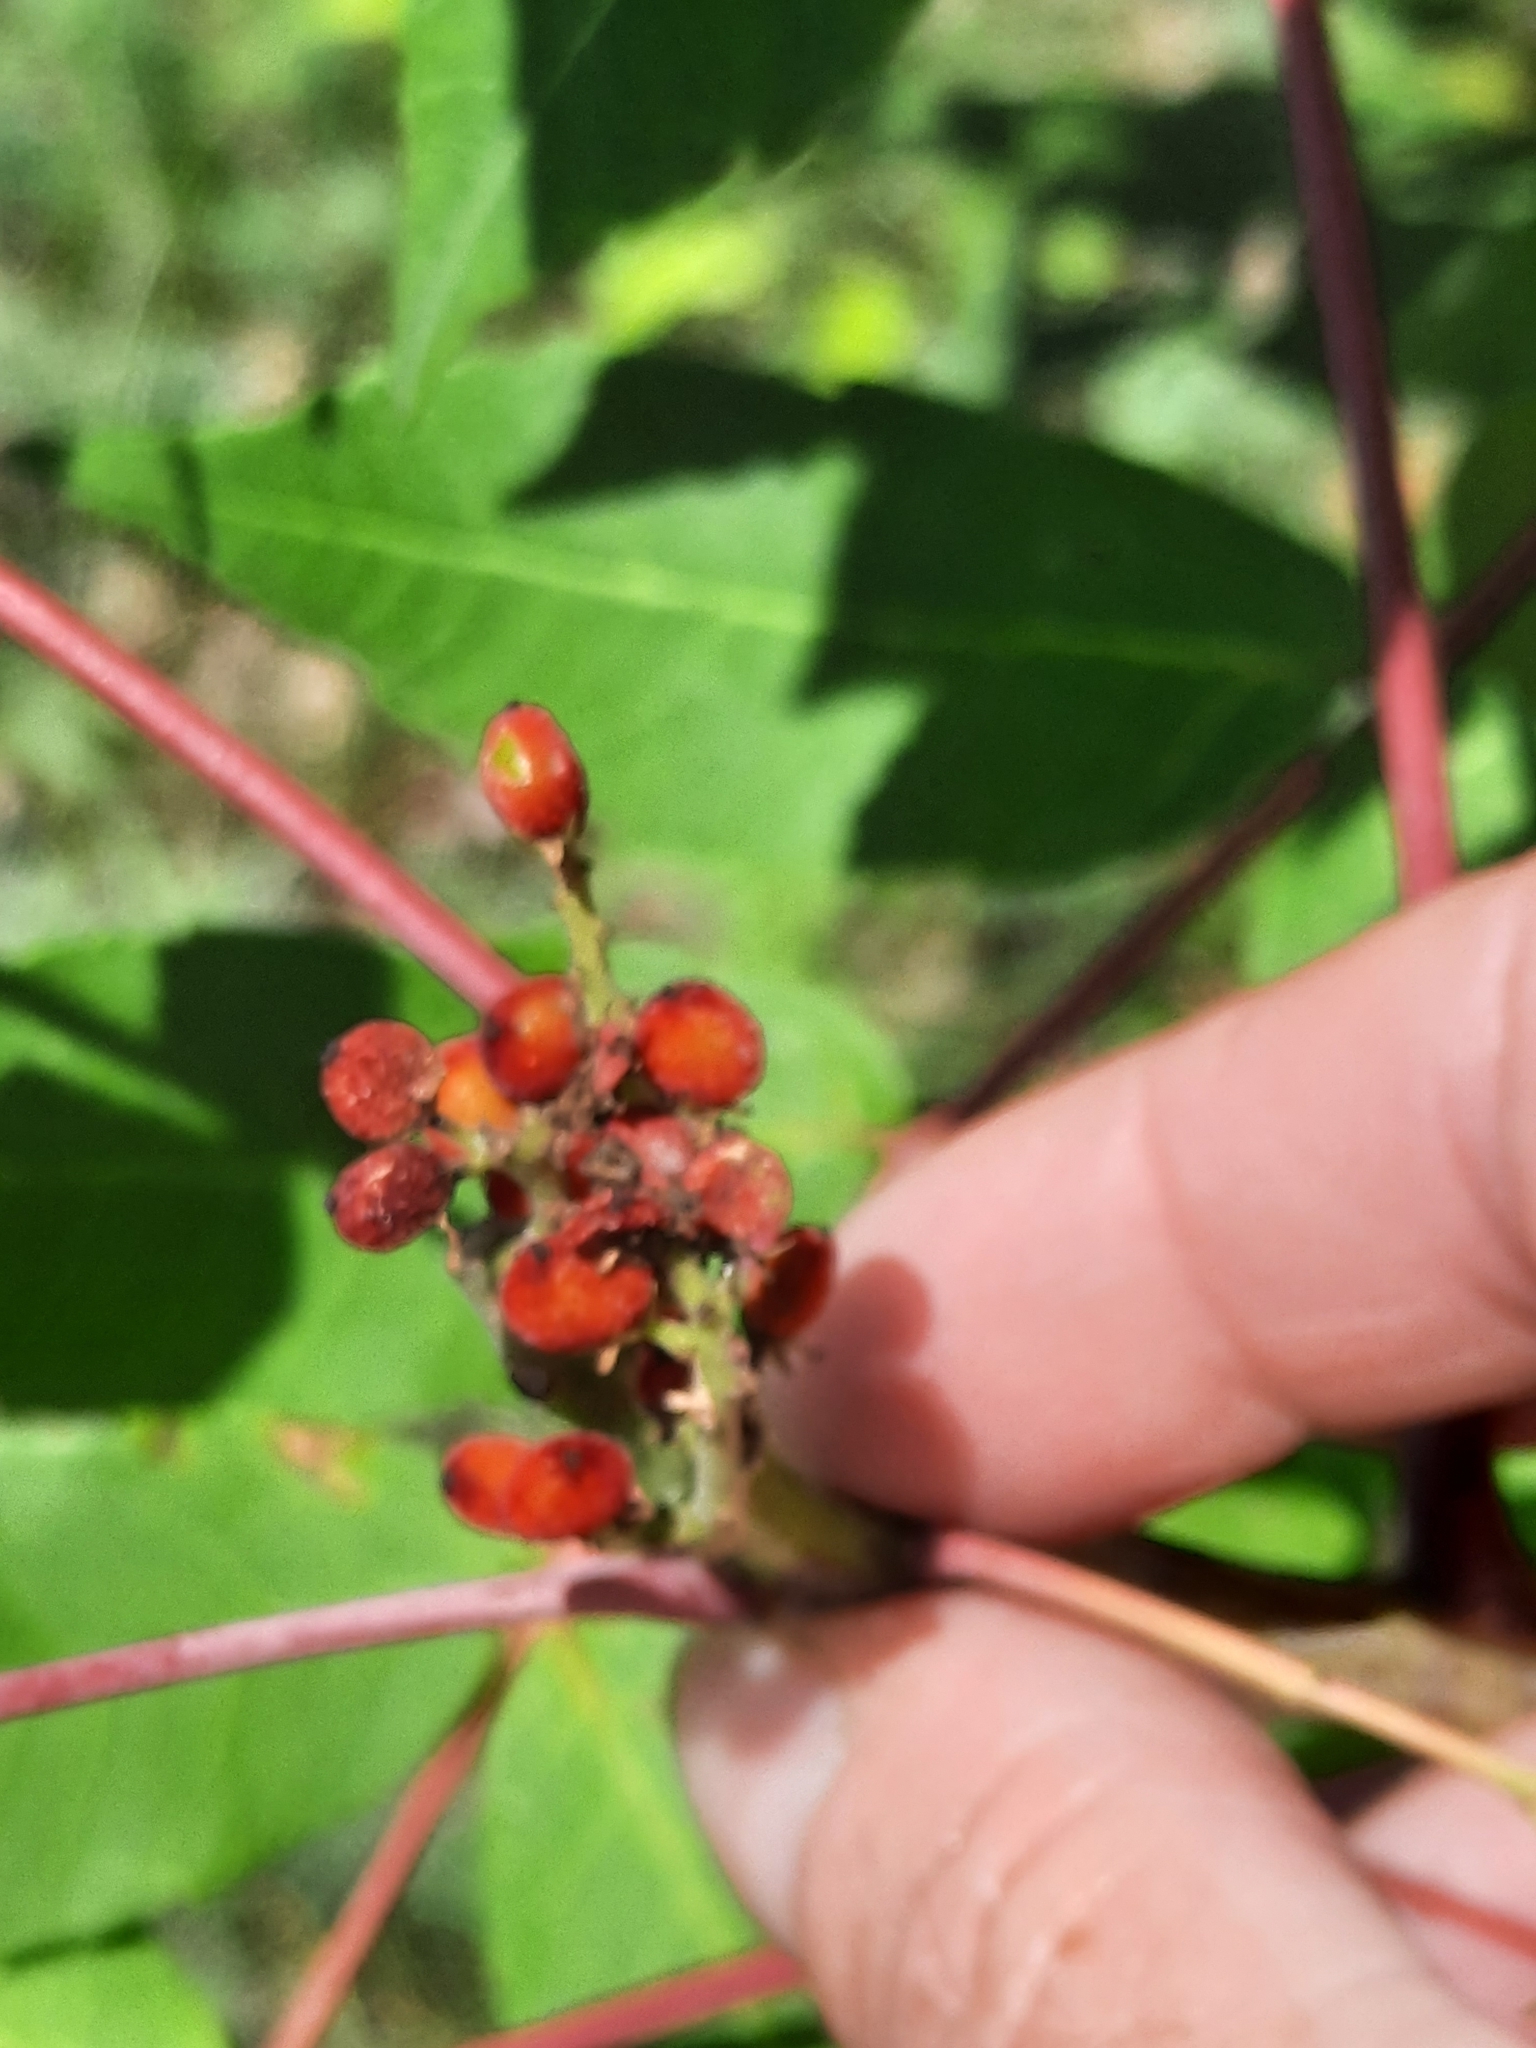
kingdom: Plantae
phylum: Tracheophyta
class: Magnoliopsida
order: Sapindales
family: Anacardiaceae
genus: Rhus
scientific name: Rhus glabra
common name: Scarlet sumac
